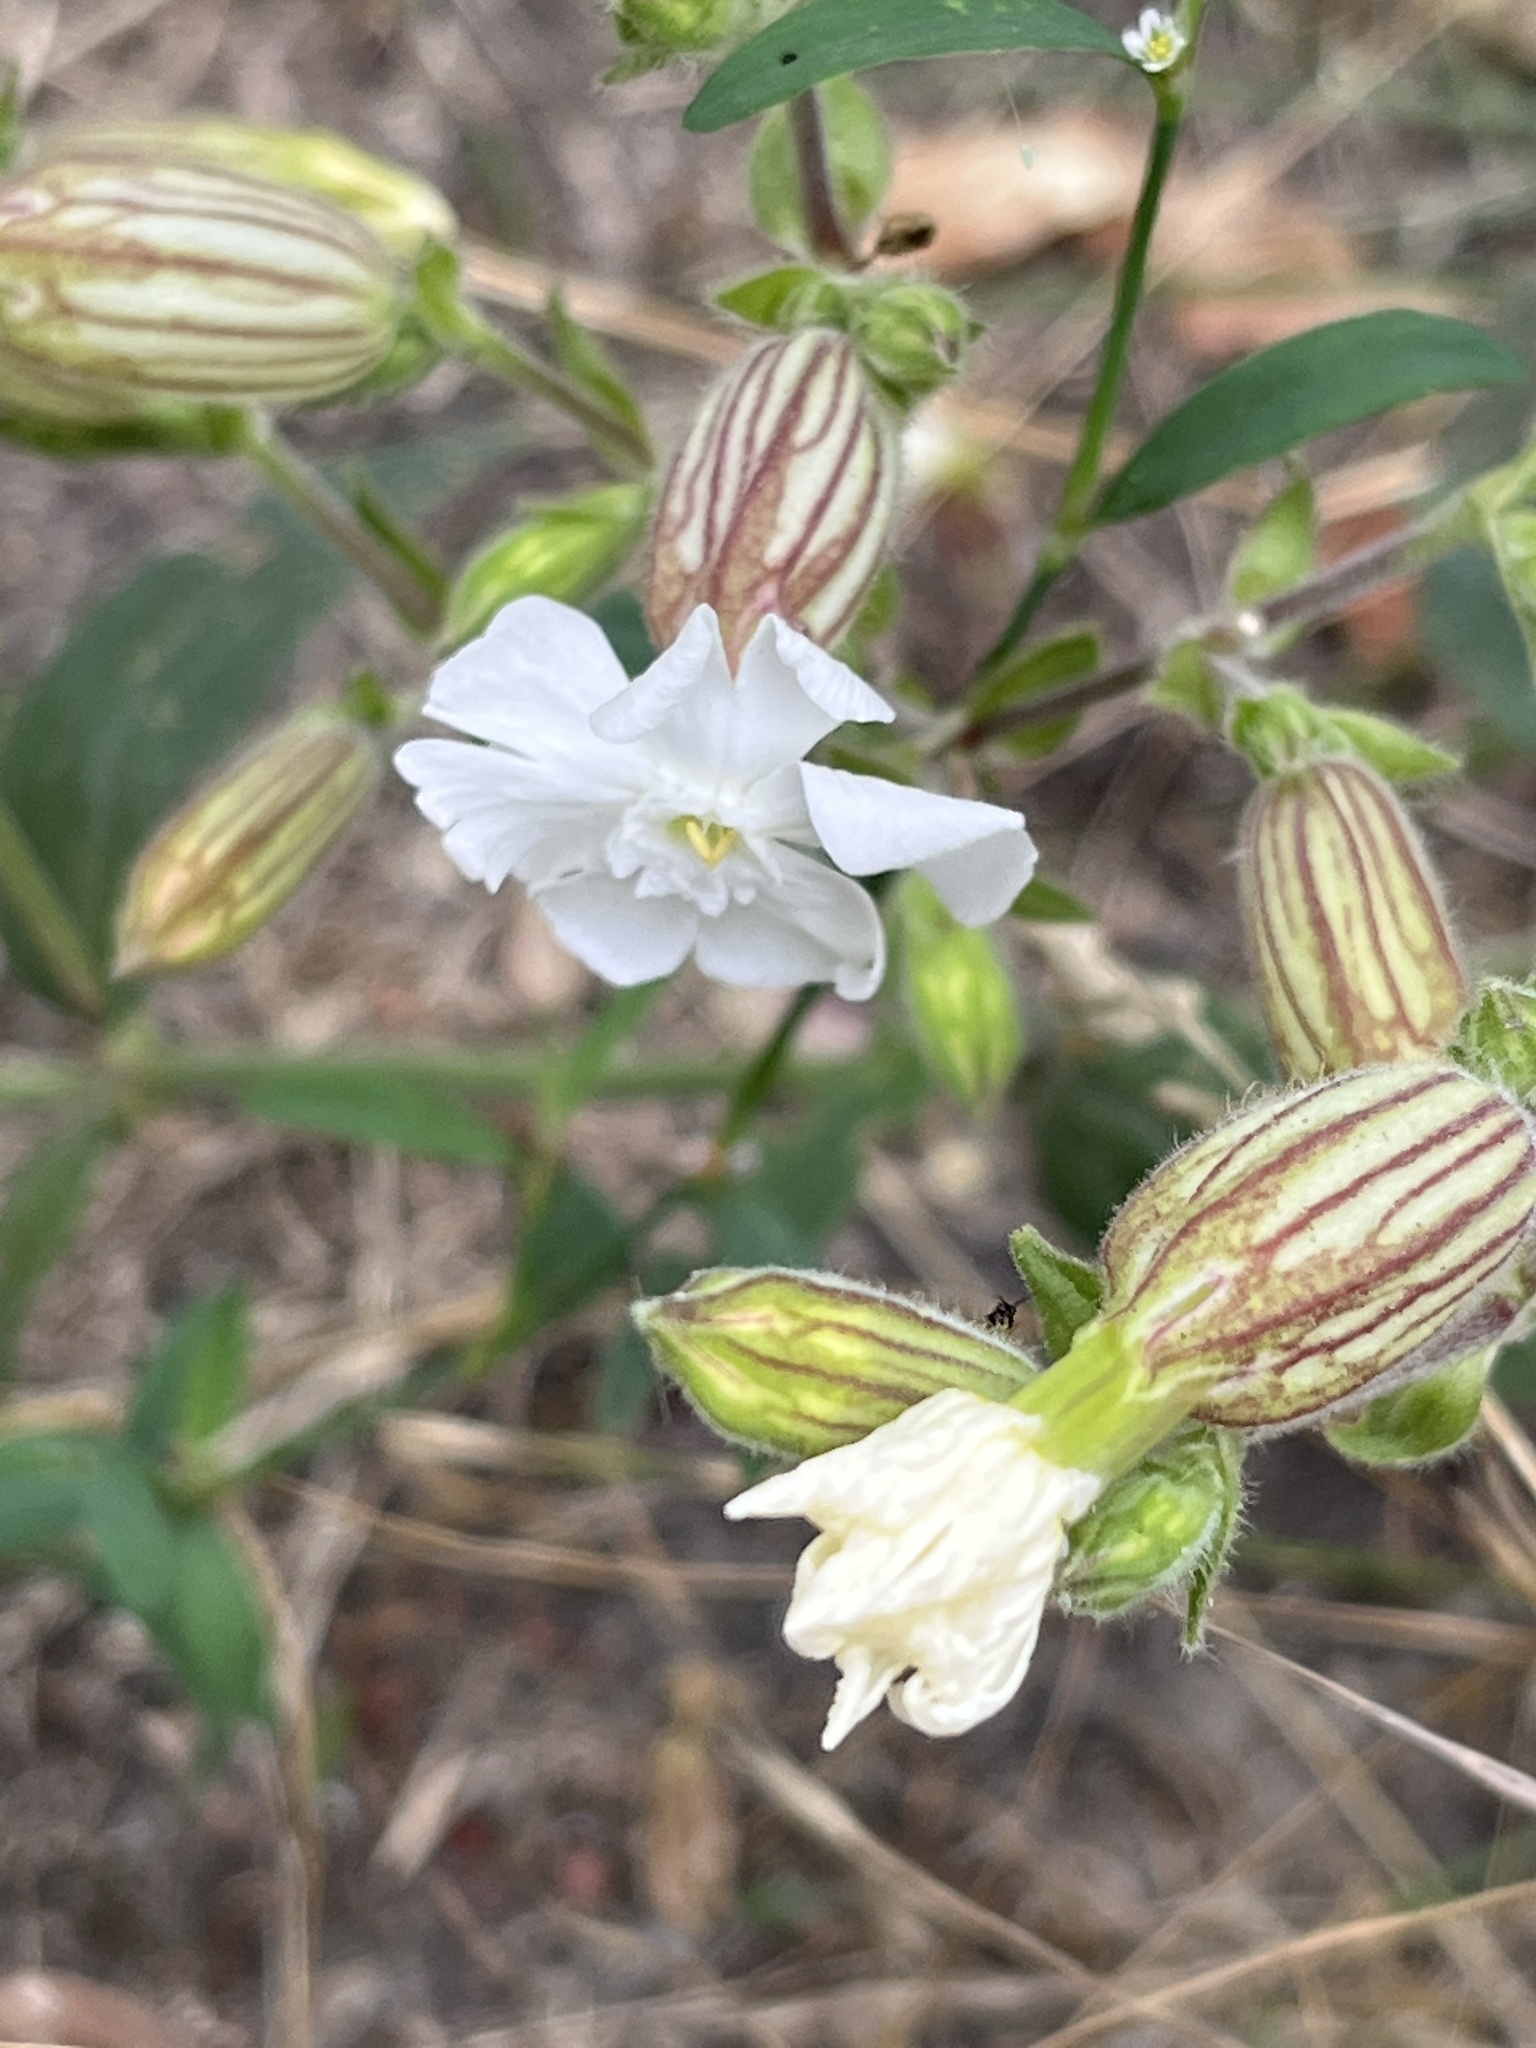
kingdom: Plantae
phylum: Tracheophyta
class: Magnoliopsida
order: Caryophyllales
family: Caryophyllaceae
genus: Silene
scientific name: Silene latifolia
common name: White campion
